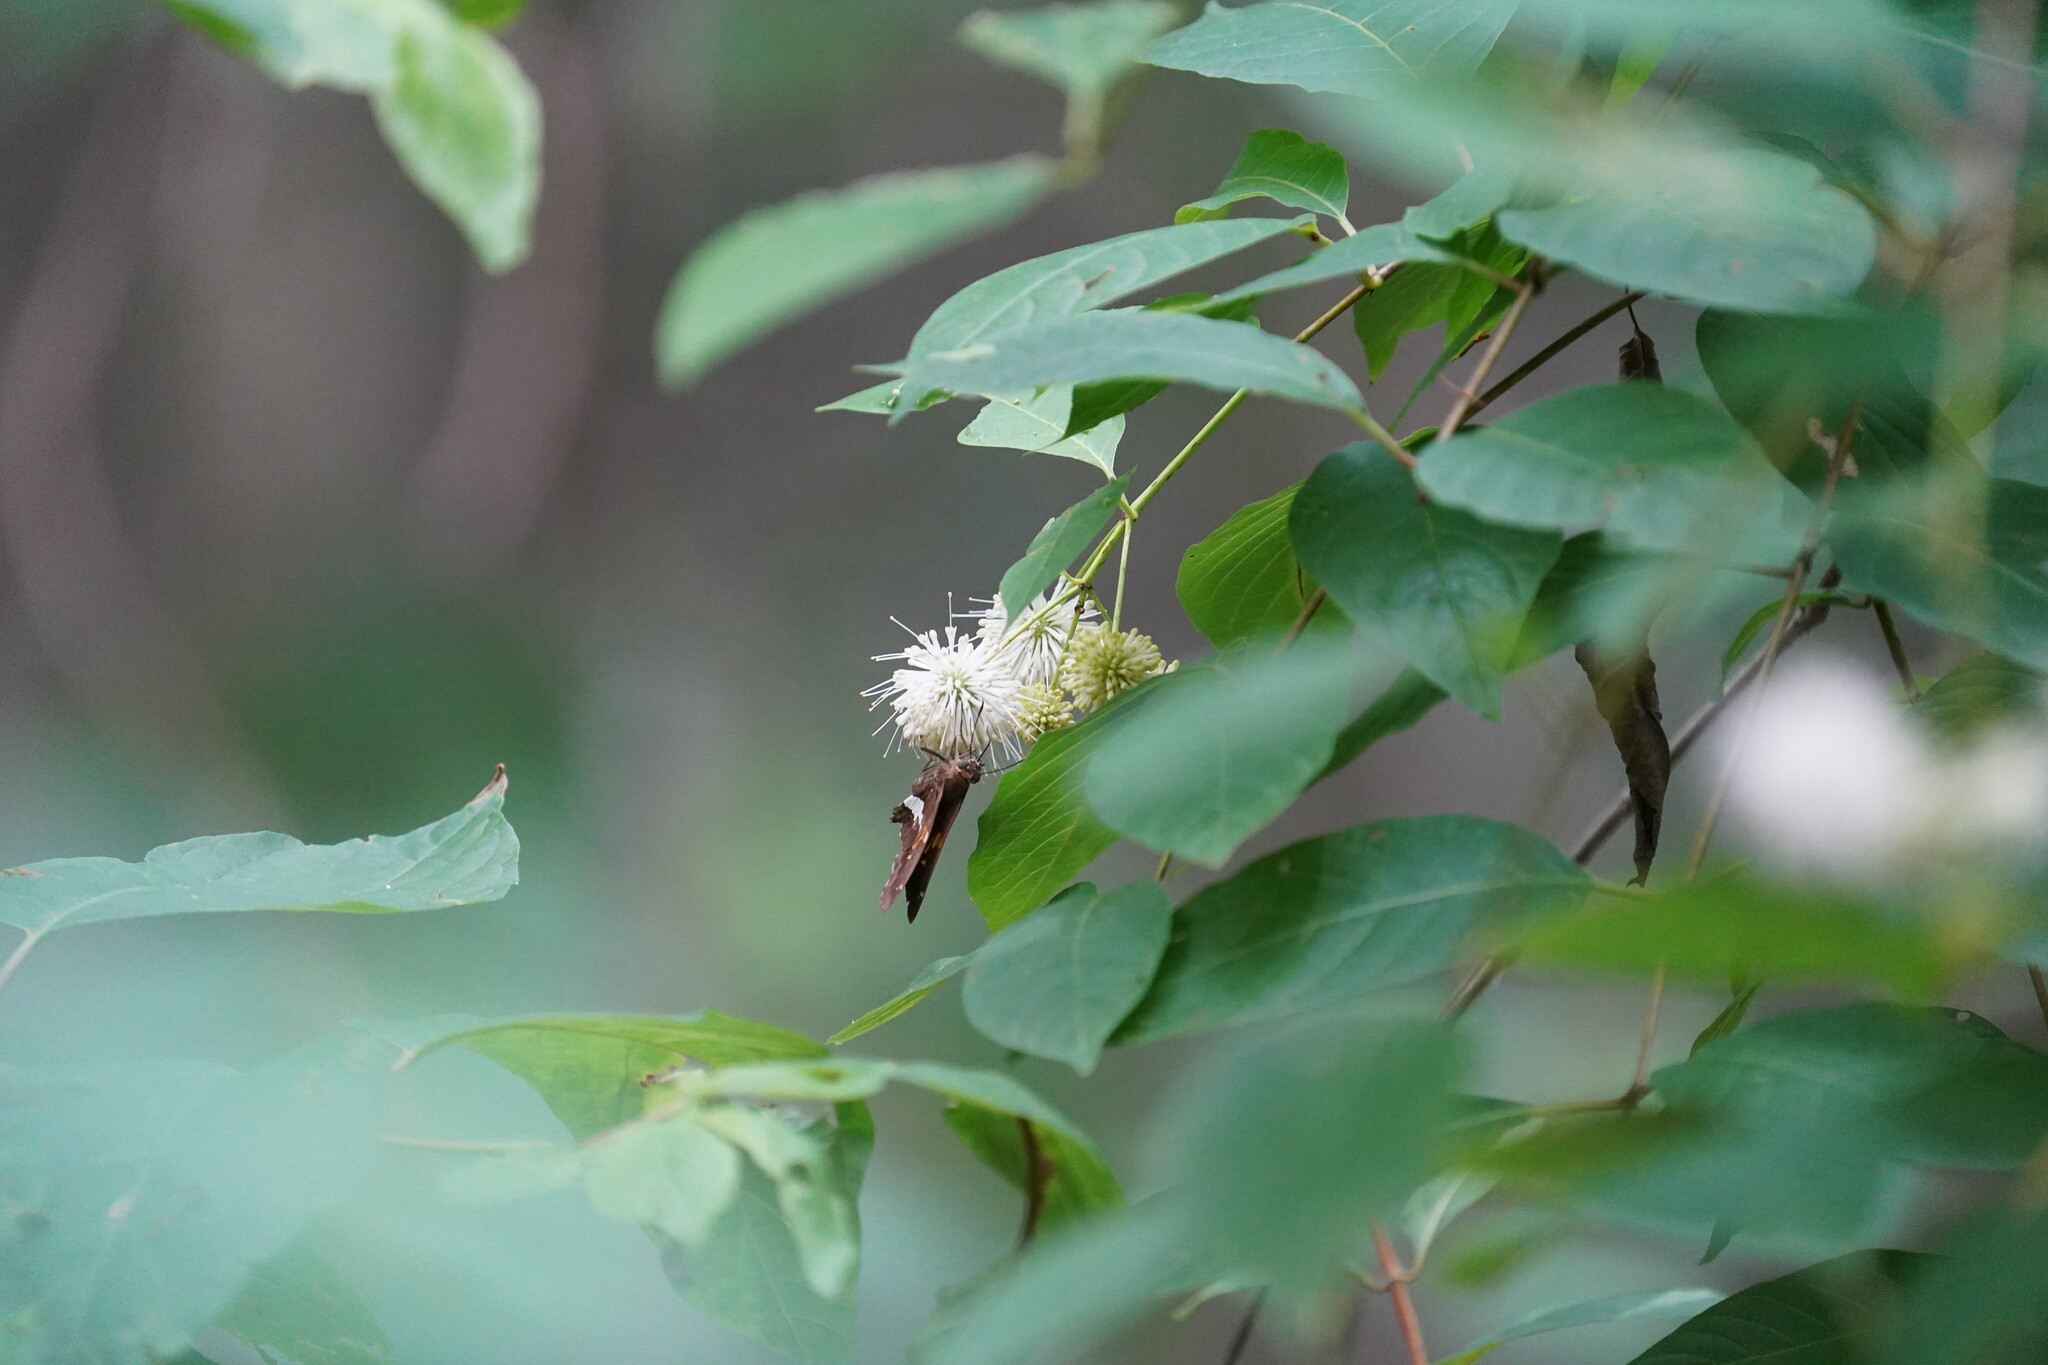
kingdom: Animalia
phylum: Arthropoda
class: Insecta
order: Lepidoptera
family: Hesperiidae
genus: Epargyreus
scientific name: Epargyreus clarus
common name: Silver-spotted skipper
